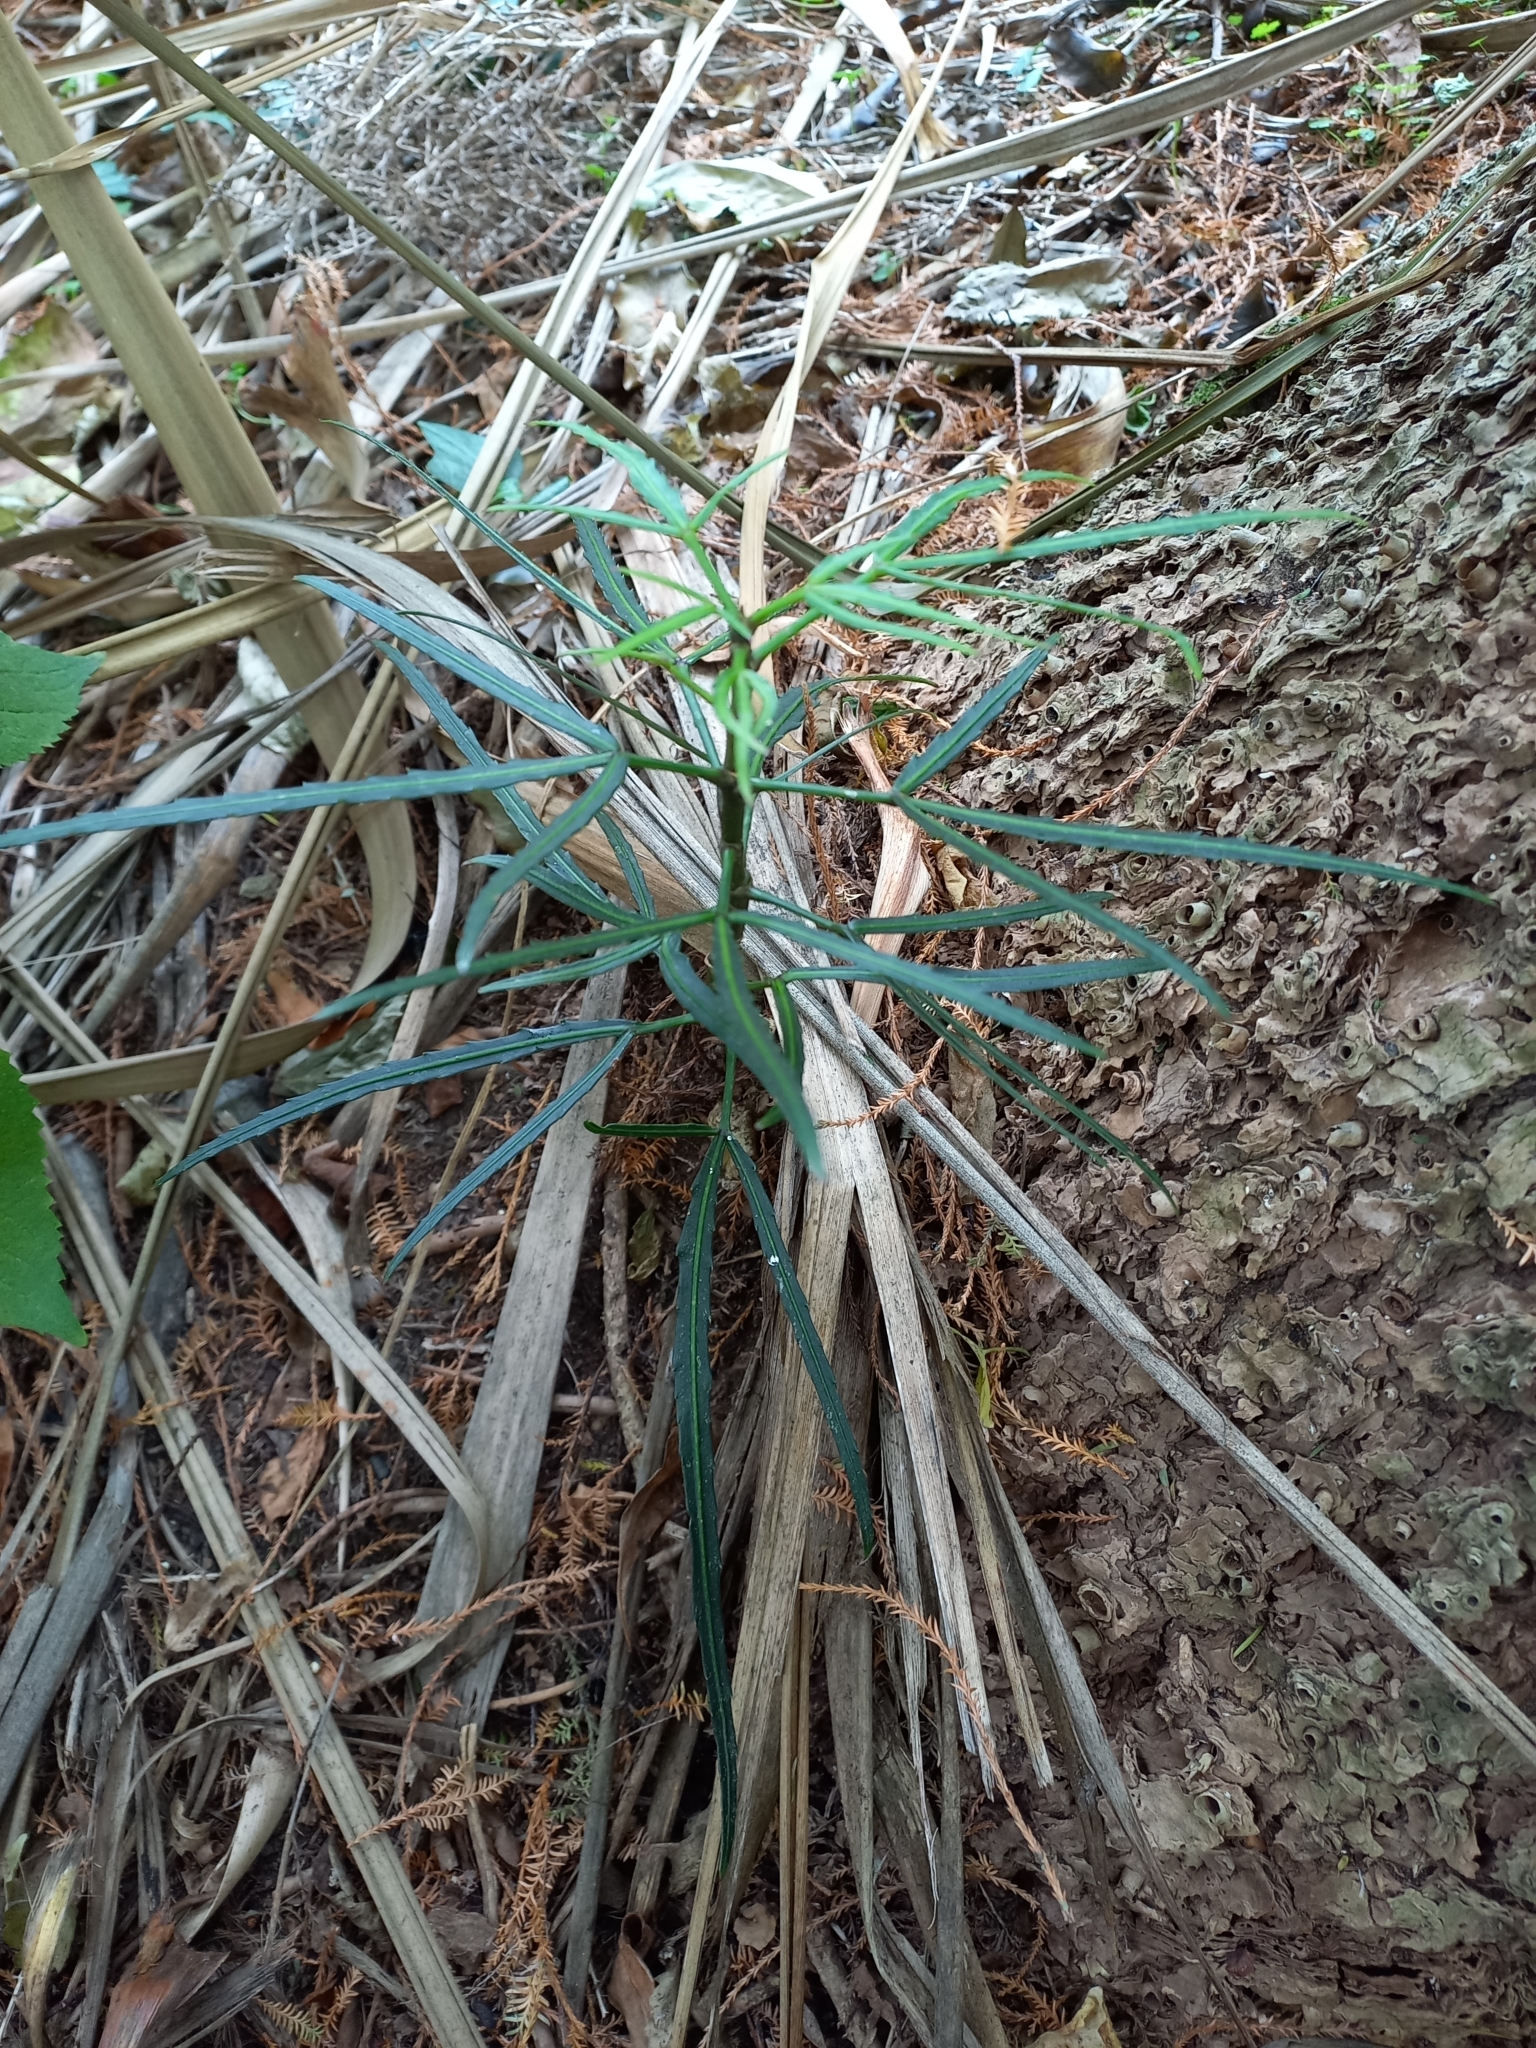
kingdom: Plantae
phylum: Tracheophyta
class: Magnoliopsida
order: Apiales
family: Araliaceae
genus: Pseudopanax
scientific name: Pseudopanax
